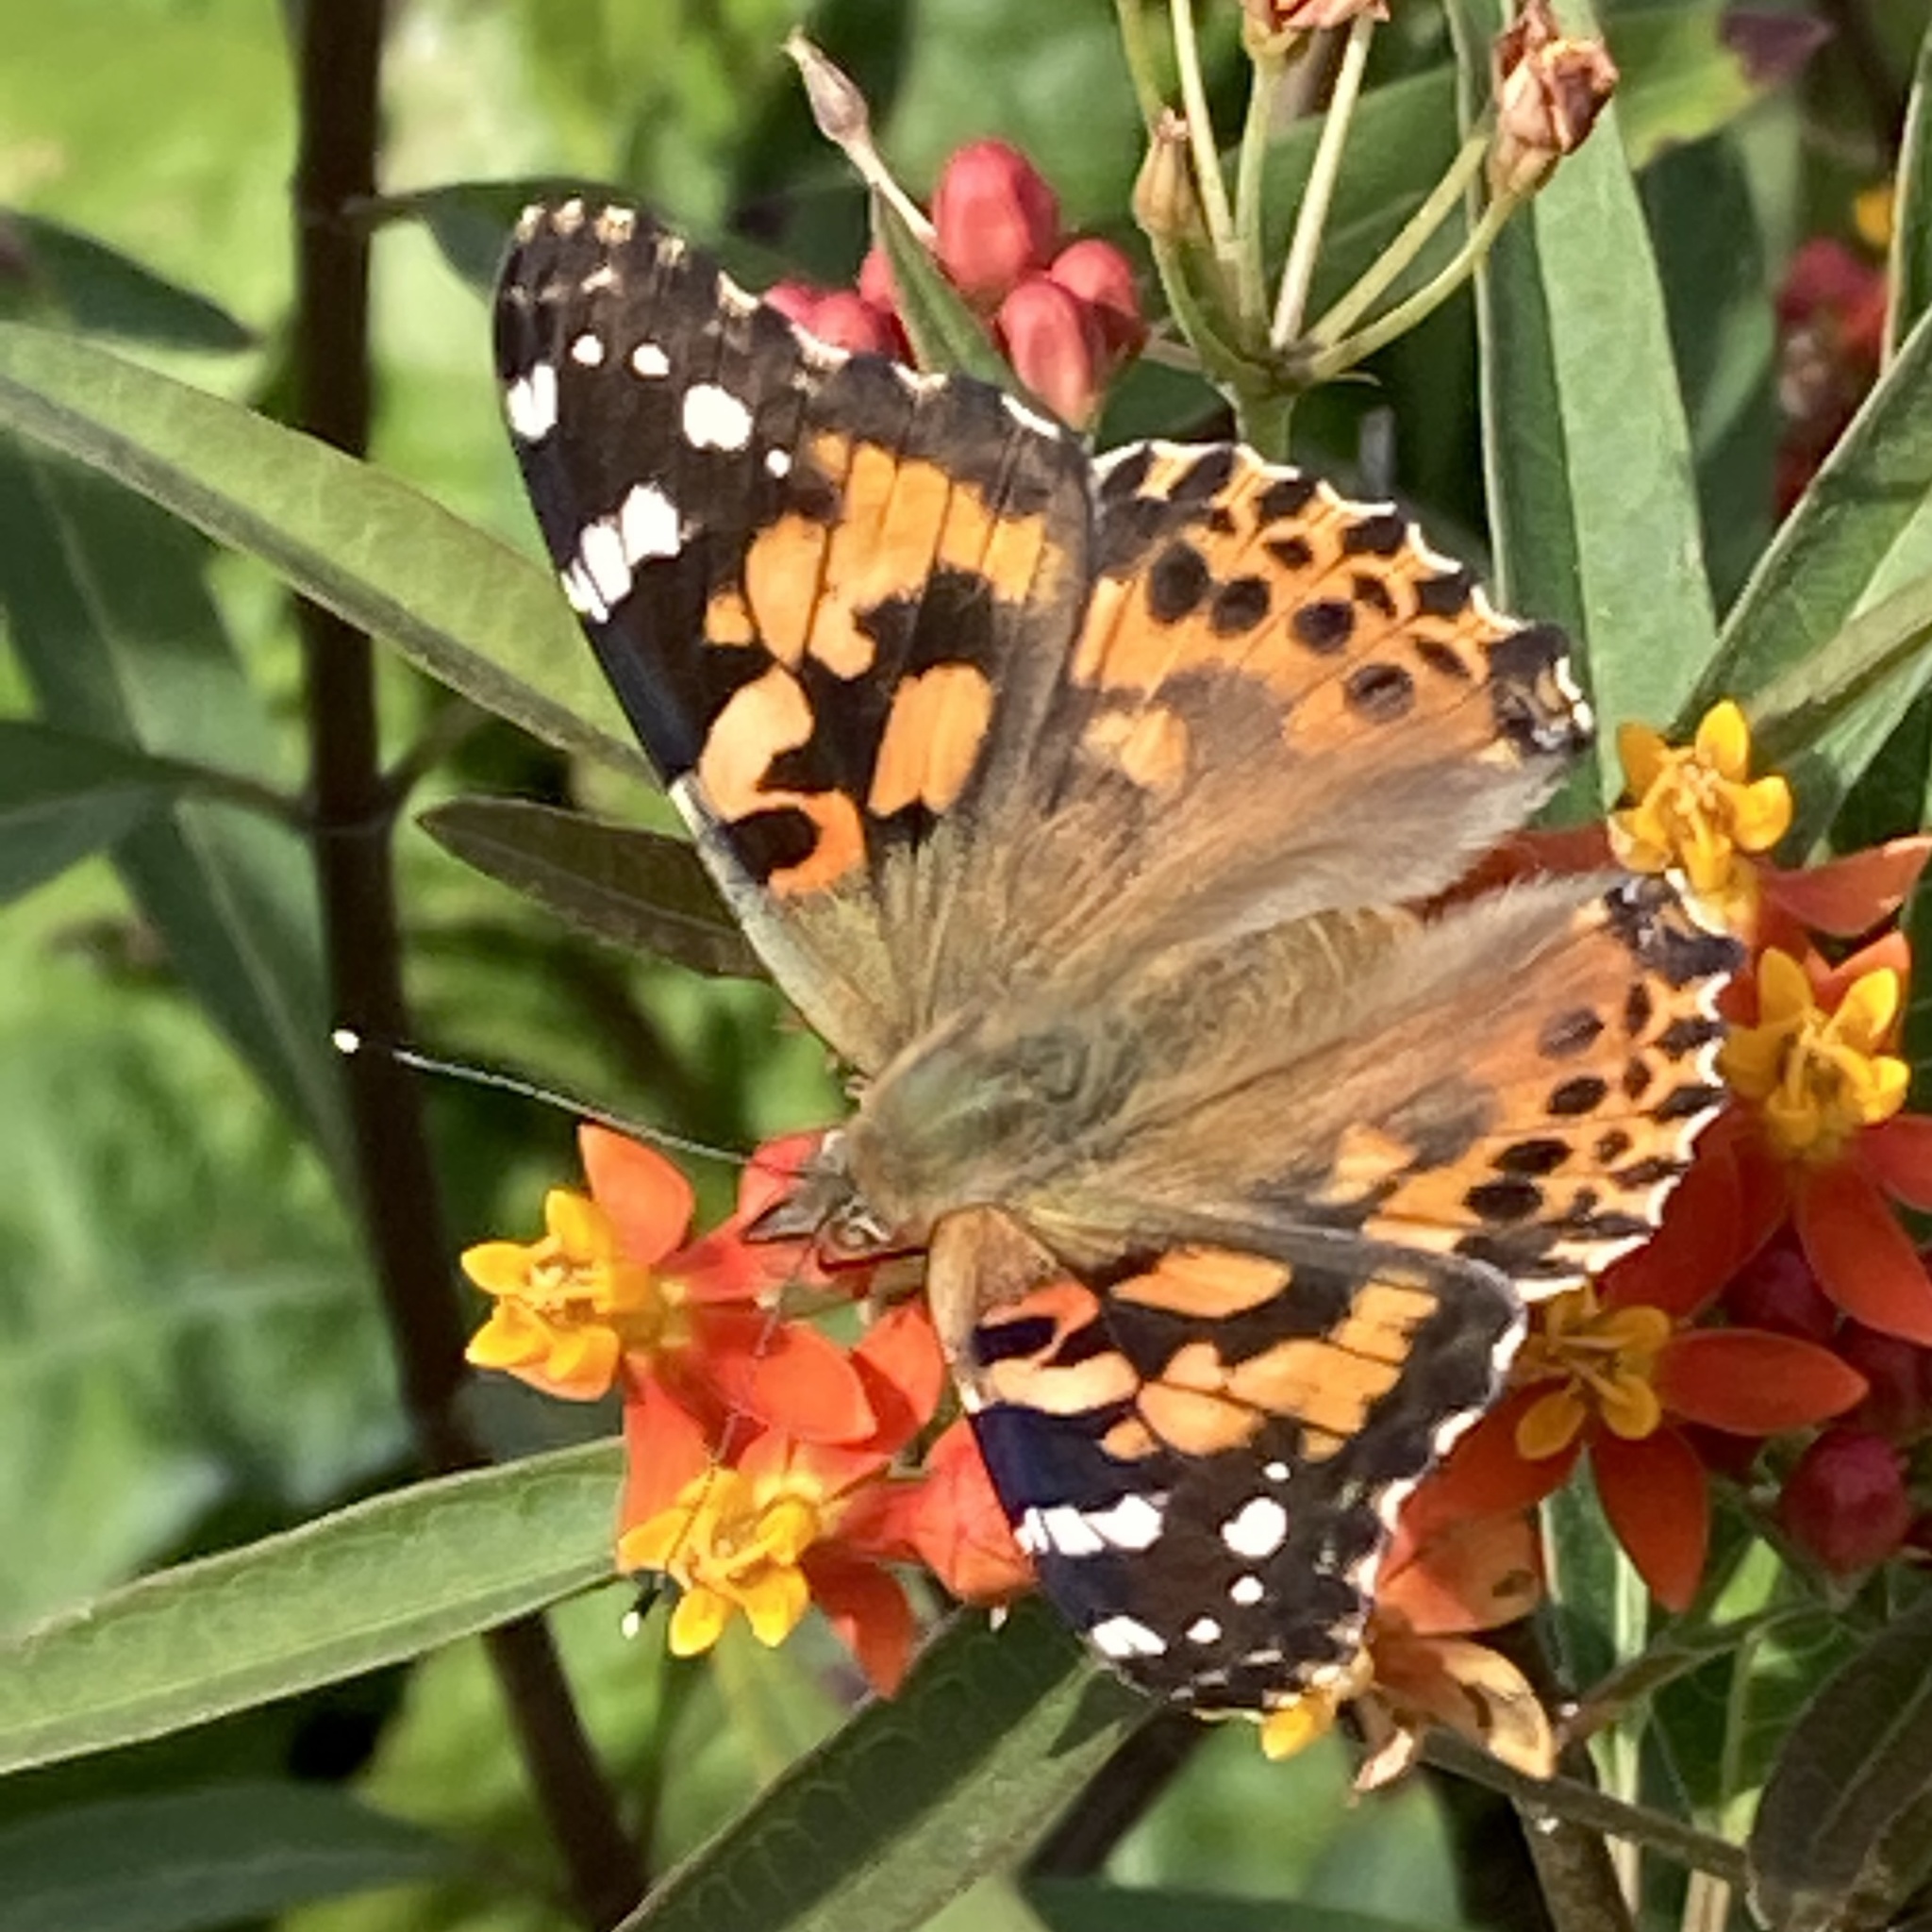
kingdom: Animalia
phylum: Arthropoda
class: Insecta
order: Lepidoptera
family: Nymphalidae
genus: Vanessa
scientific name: Vanessa cardui
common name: Painted lady
